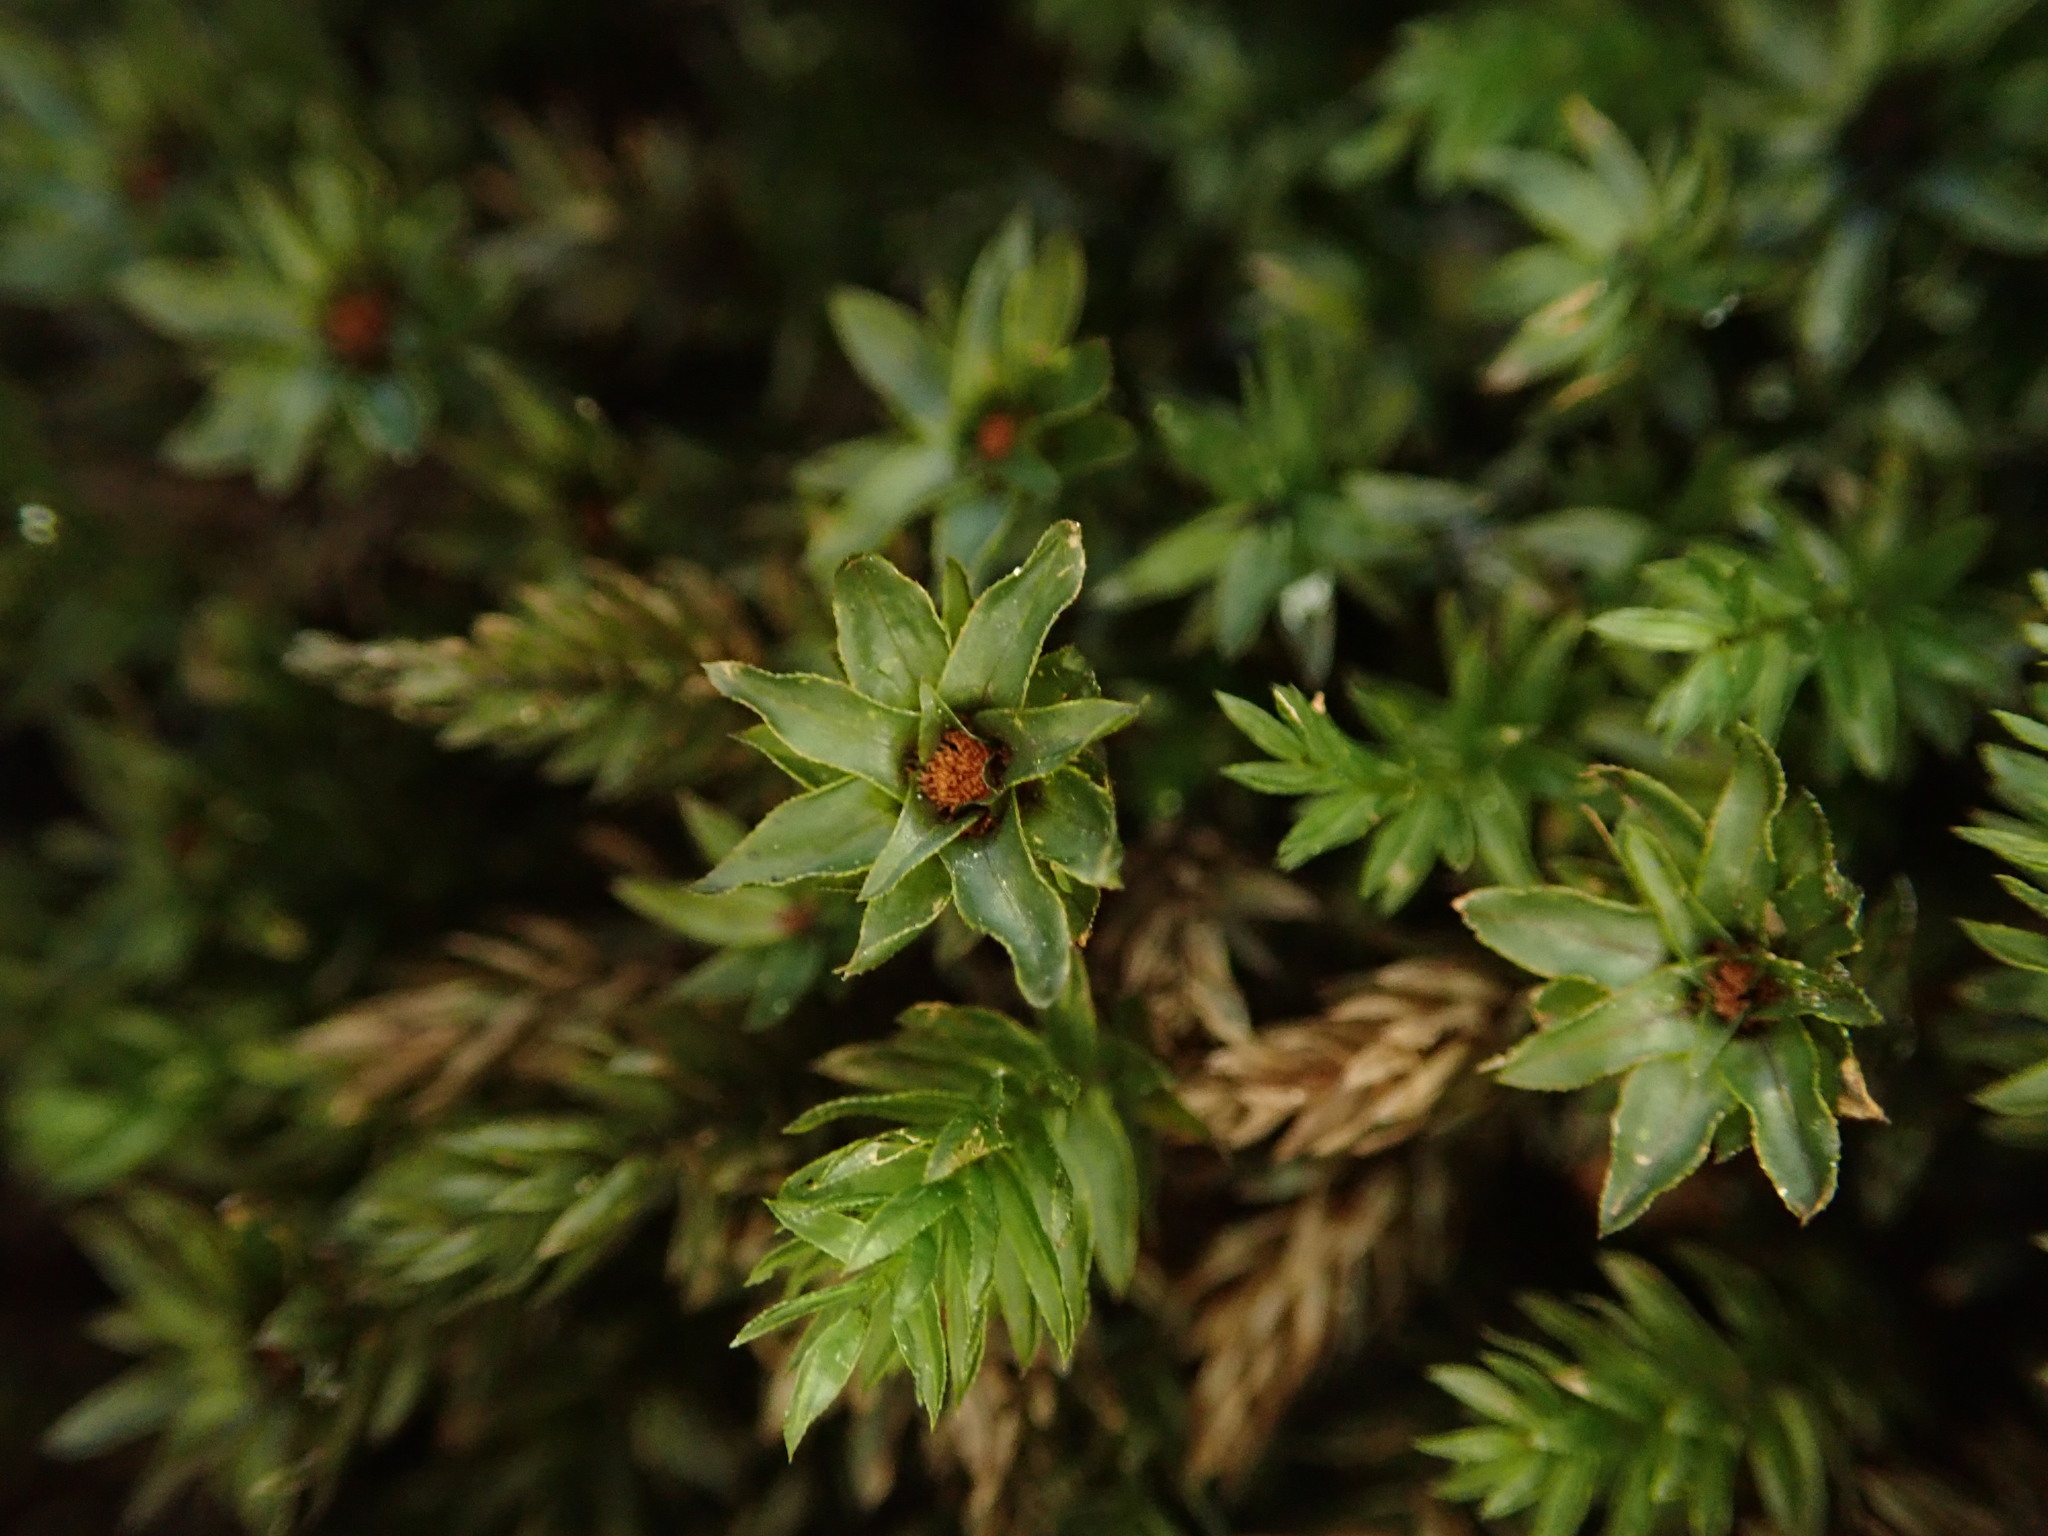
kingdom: Plantae
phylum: Bryophyta
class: Bryopsida
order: Bryales
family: Mniaceae
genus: Mnium
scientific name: Mnium hornum
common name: Swan's-neck leafy moss
